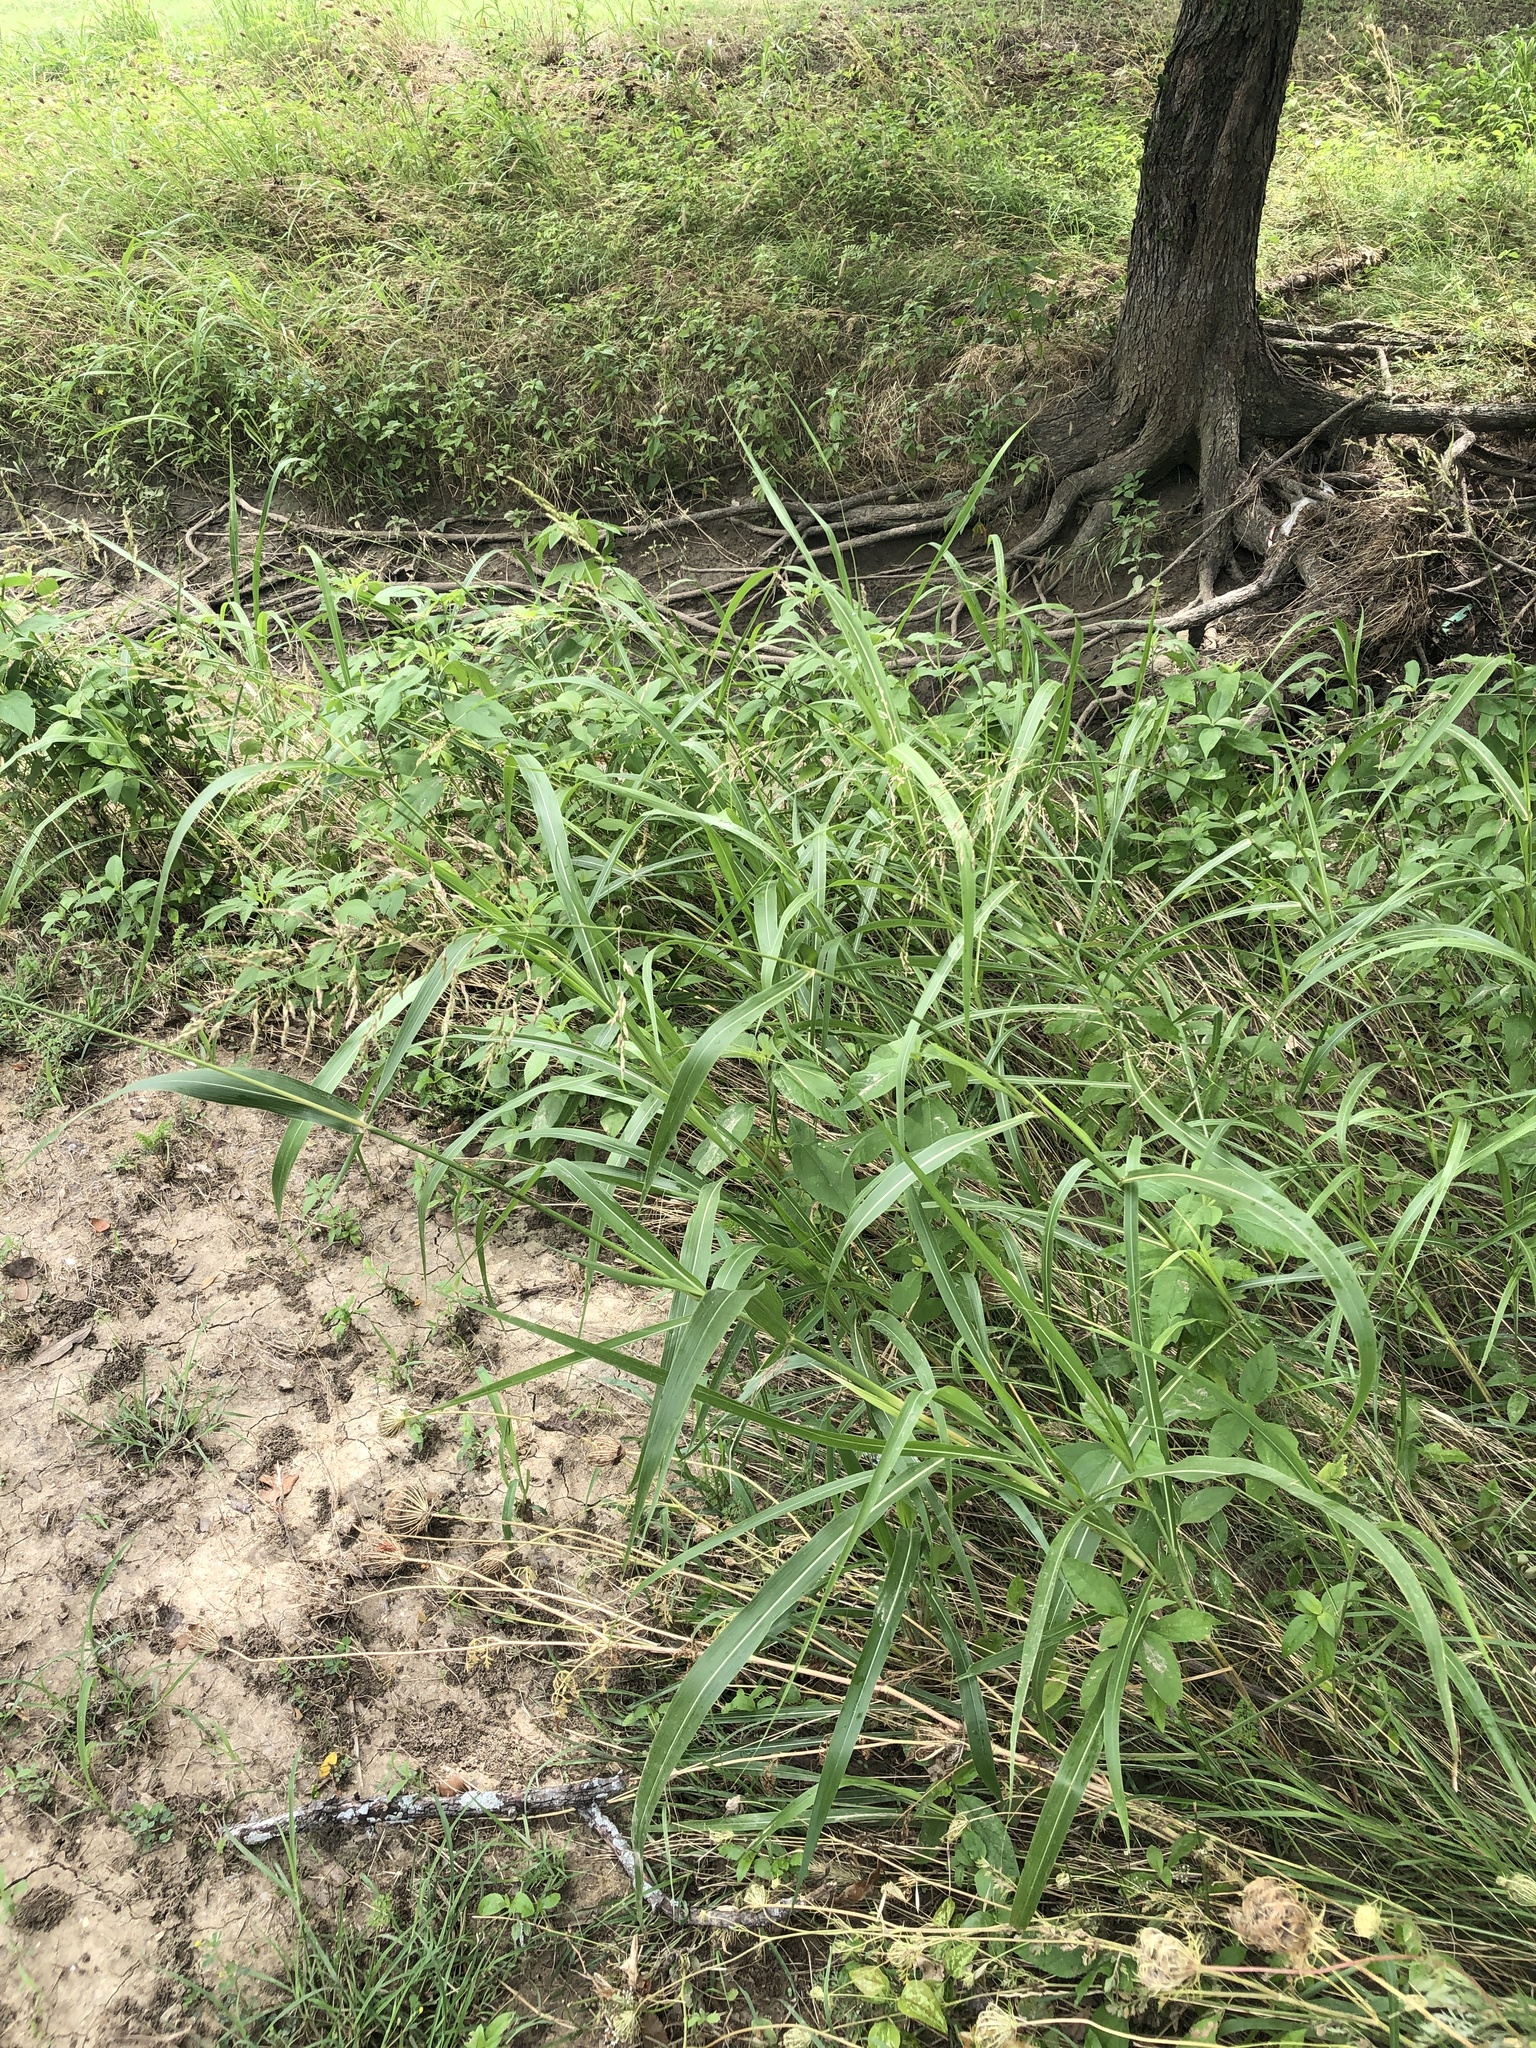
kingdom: Plantae
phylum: Tracheophyta
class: Liliopsida
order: Poales
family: Poaceae
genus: Sorghum
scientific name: Sorghum halepense
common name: Johnson-grass
